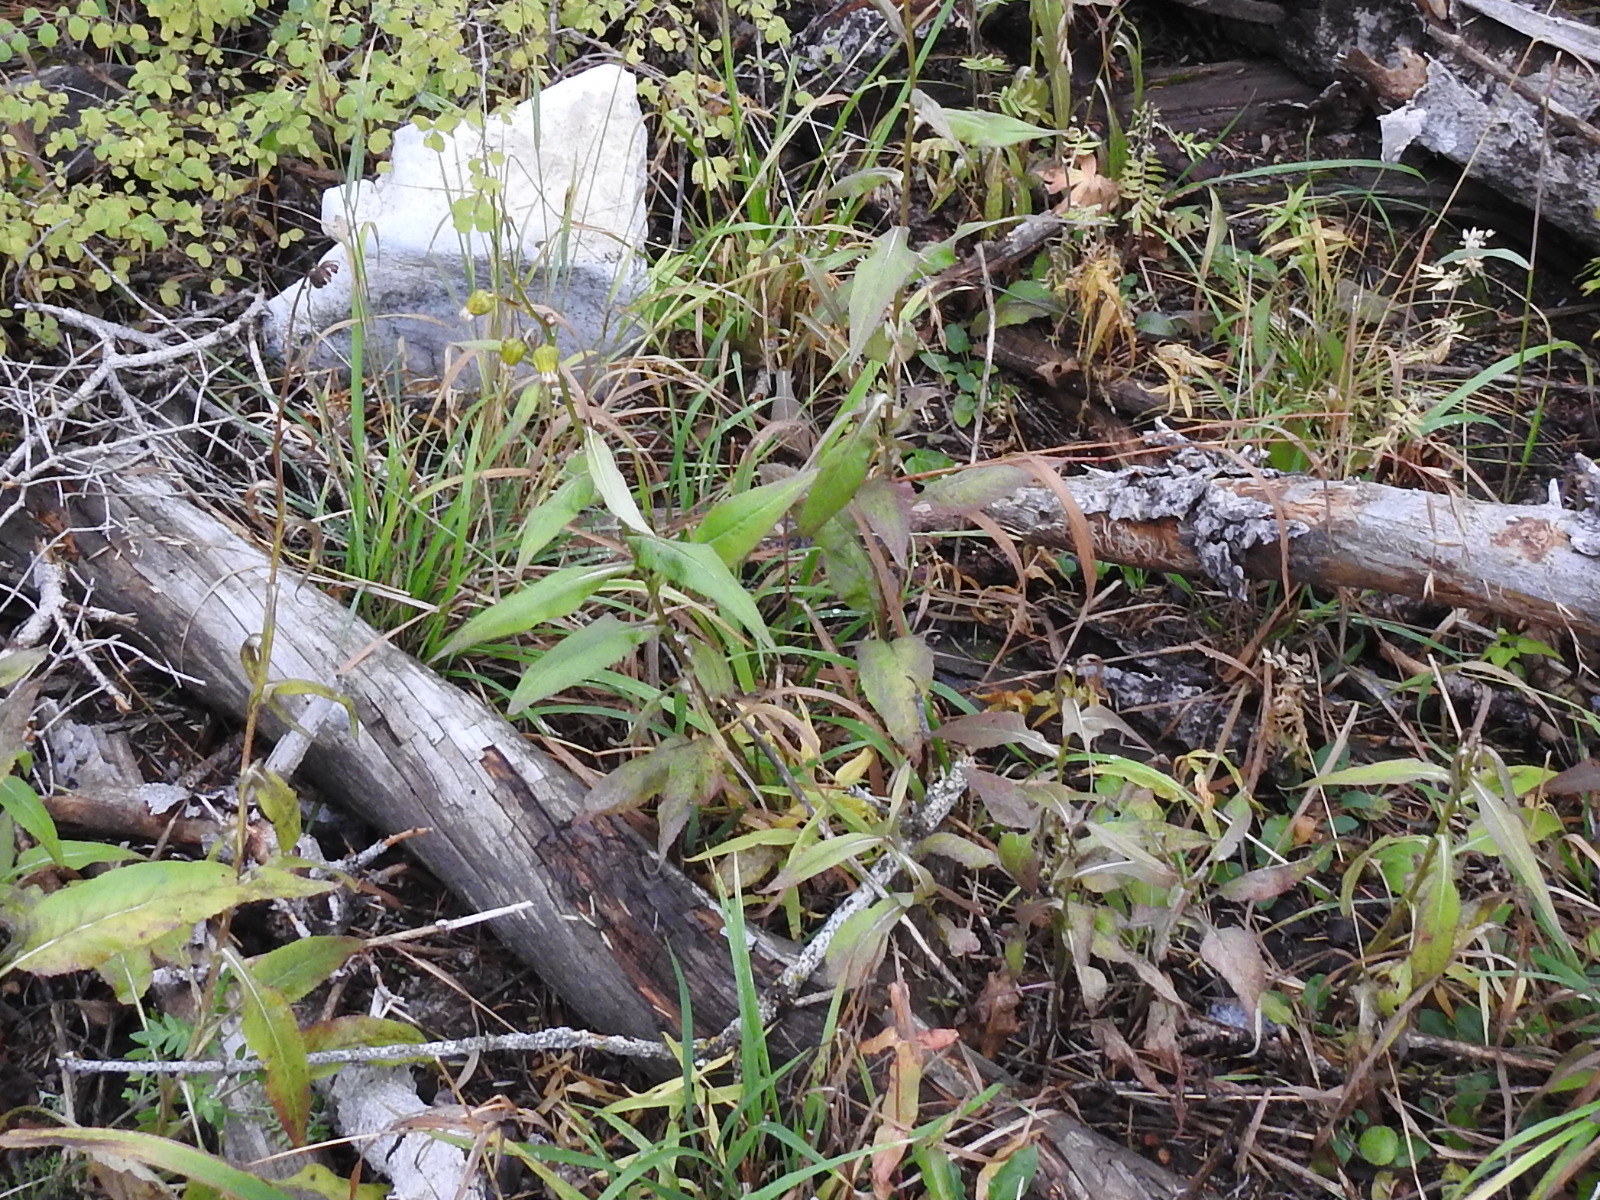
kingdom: Plantae
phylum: Tracheophyta
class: Magnoliopsida
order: Asterales
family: Asteraceae
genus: Senecio
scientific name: Senecio bigelovii
